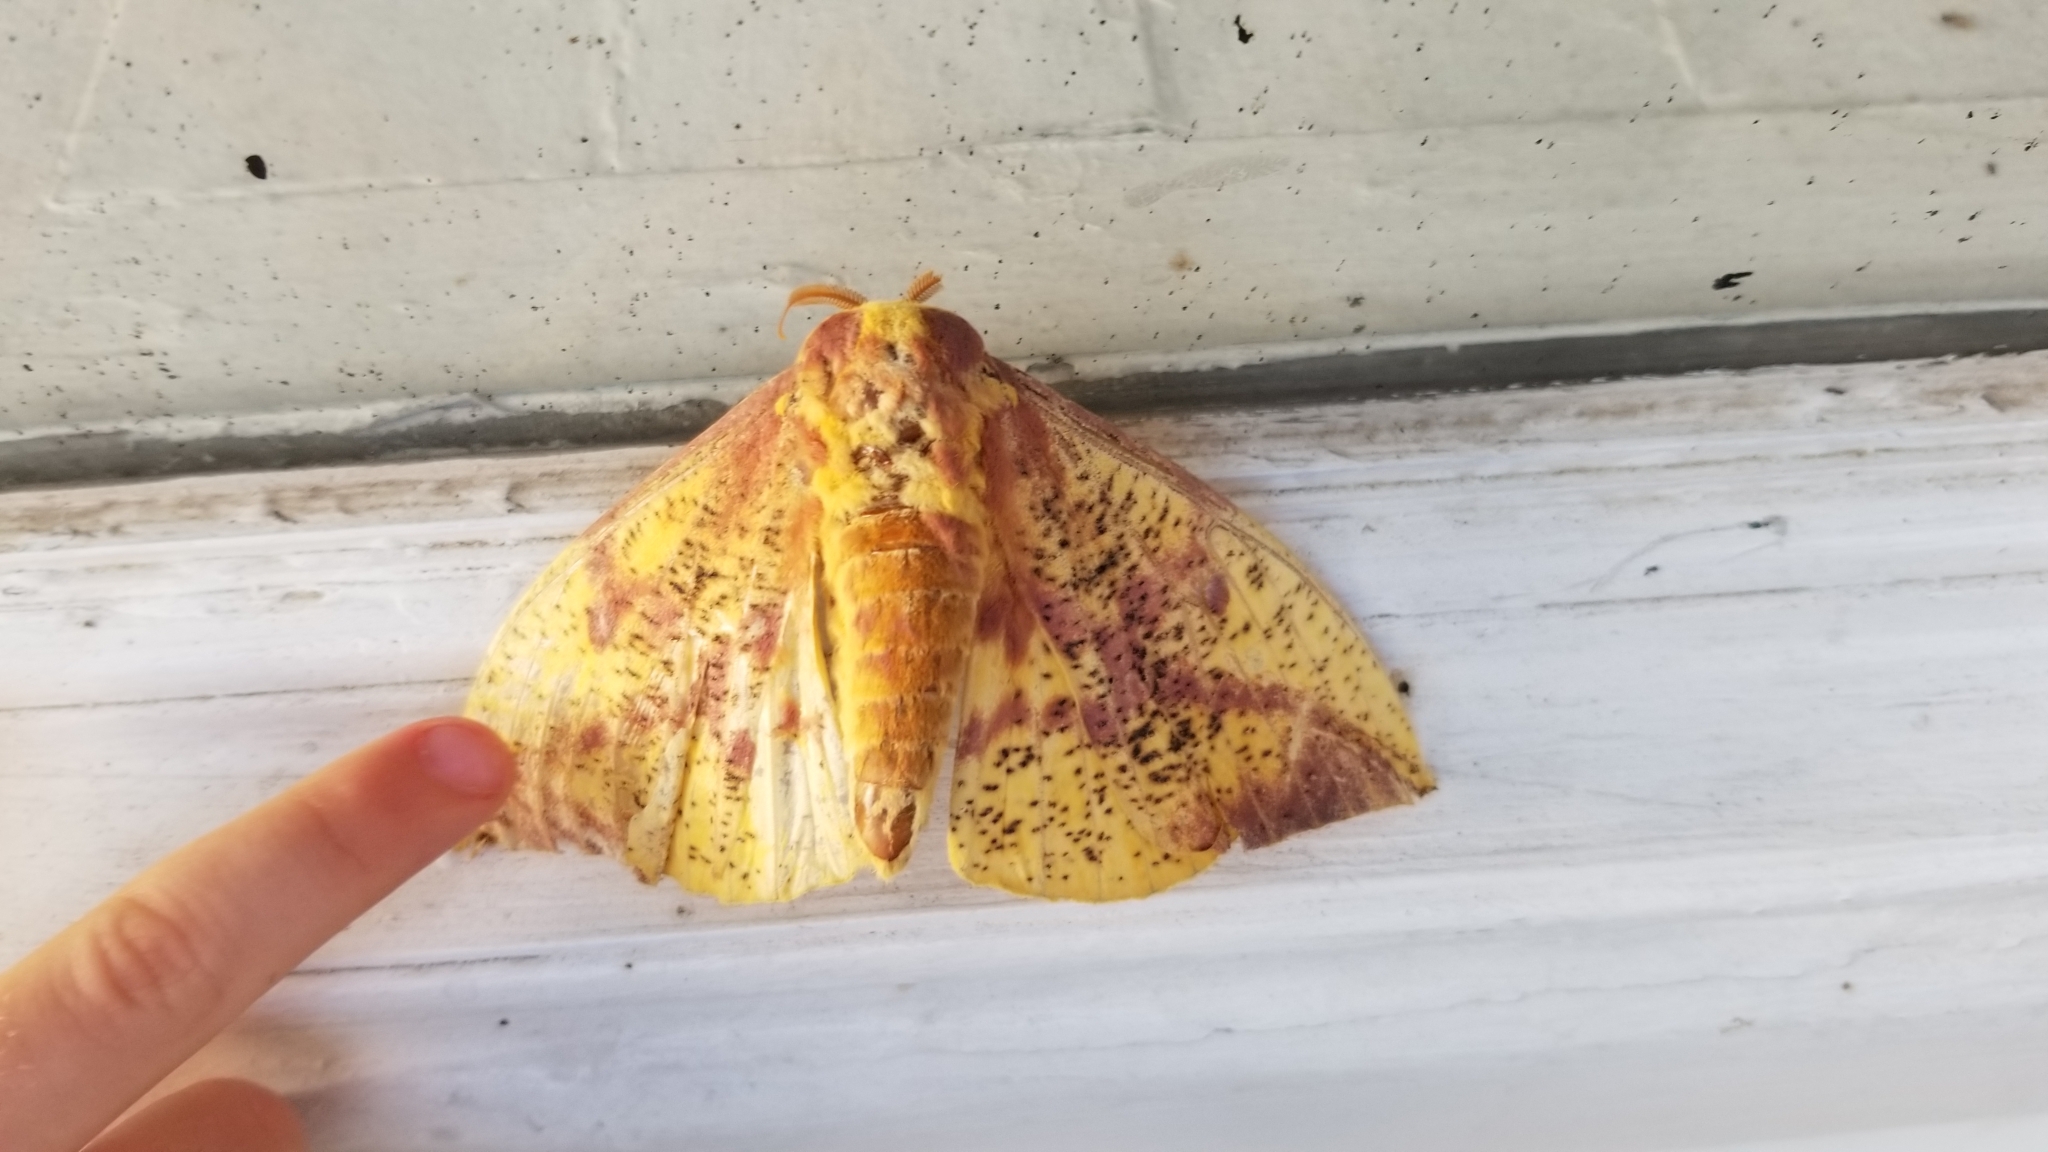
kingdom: Animalia
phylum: Arthropoda
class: Insecta
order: Lepidoptera
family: Saturniidae
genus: Eacles
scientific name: Eacles imperialis
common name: Imperial moth
